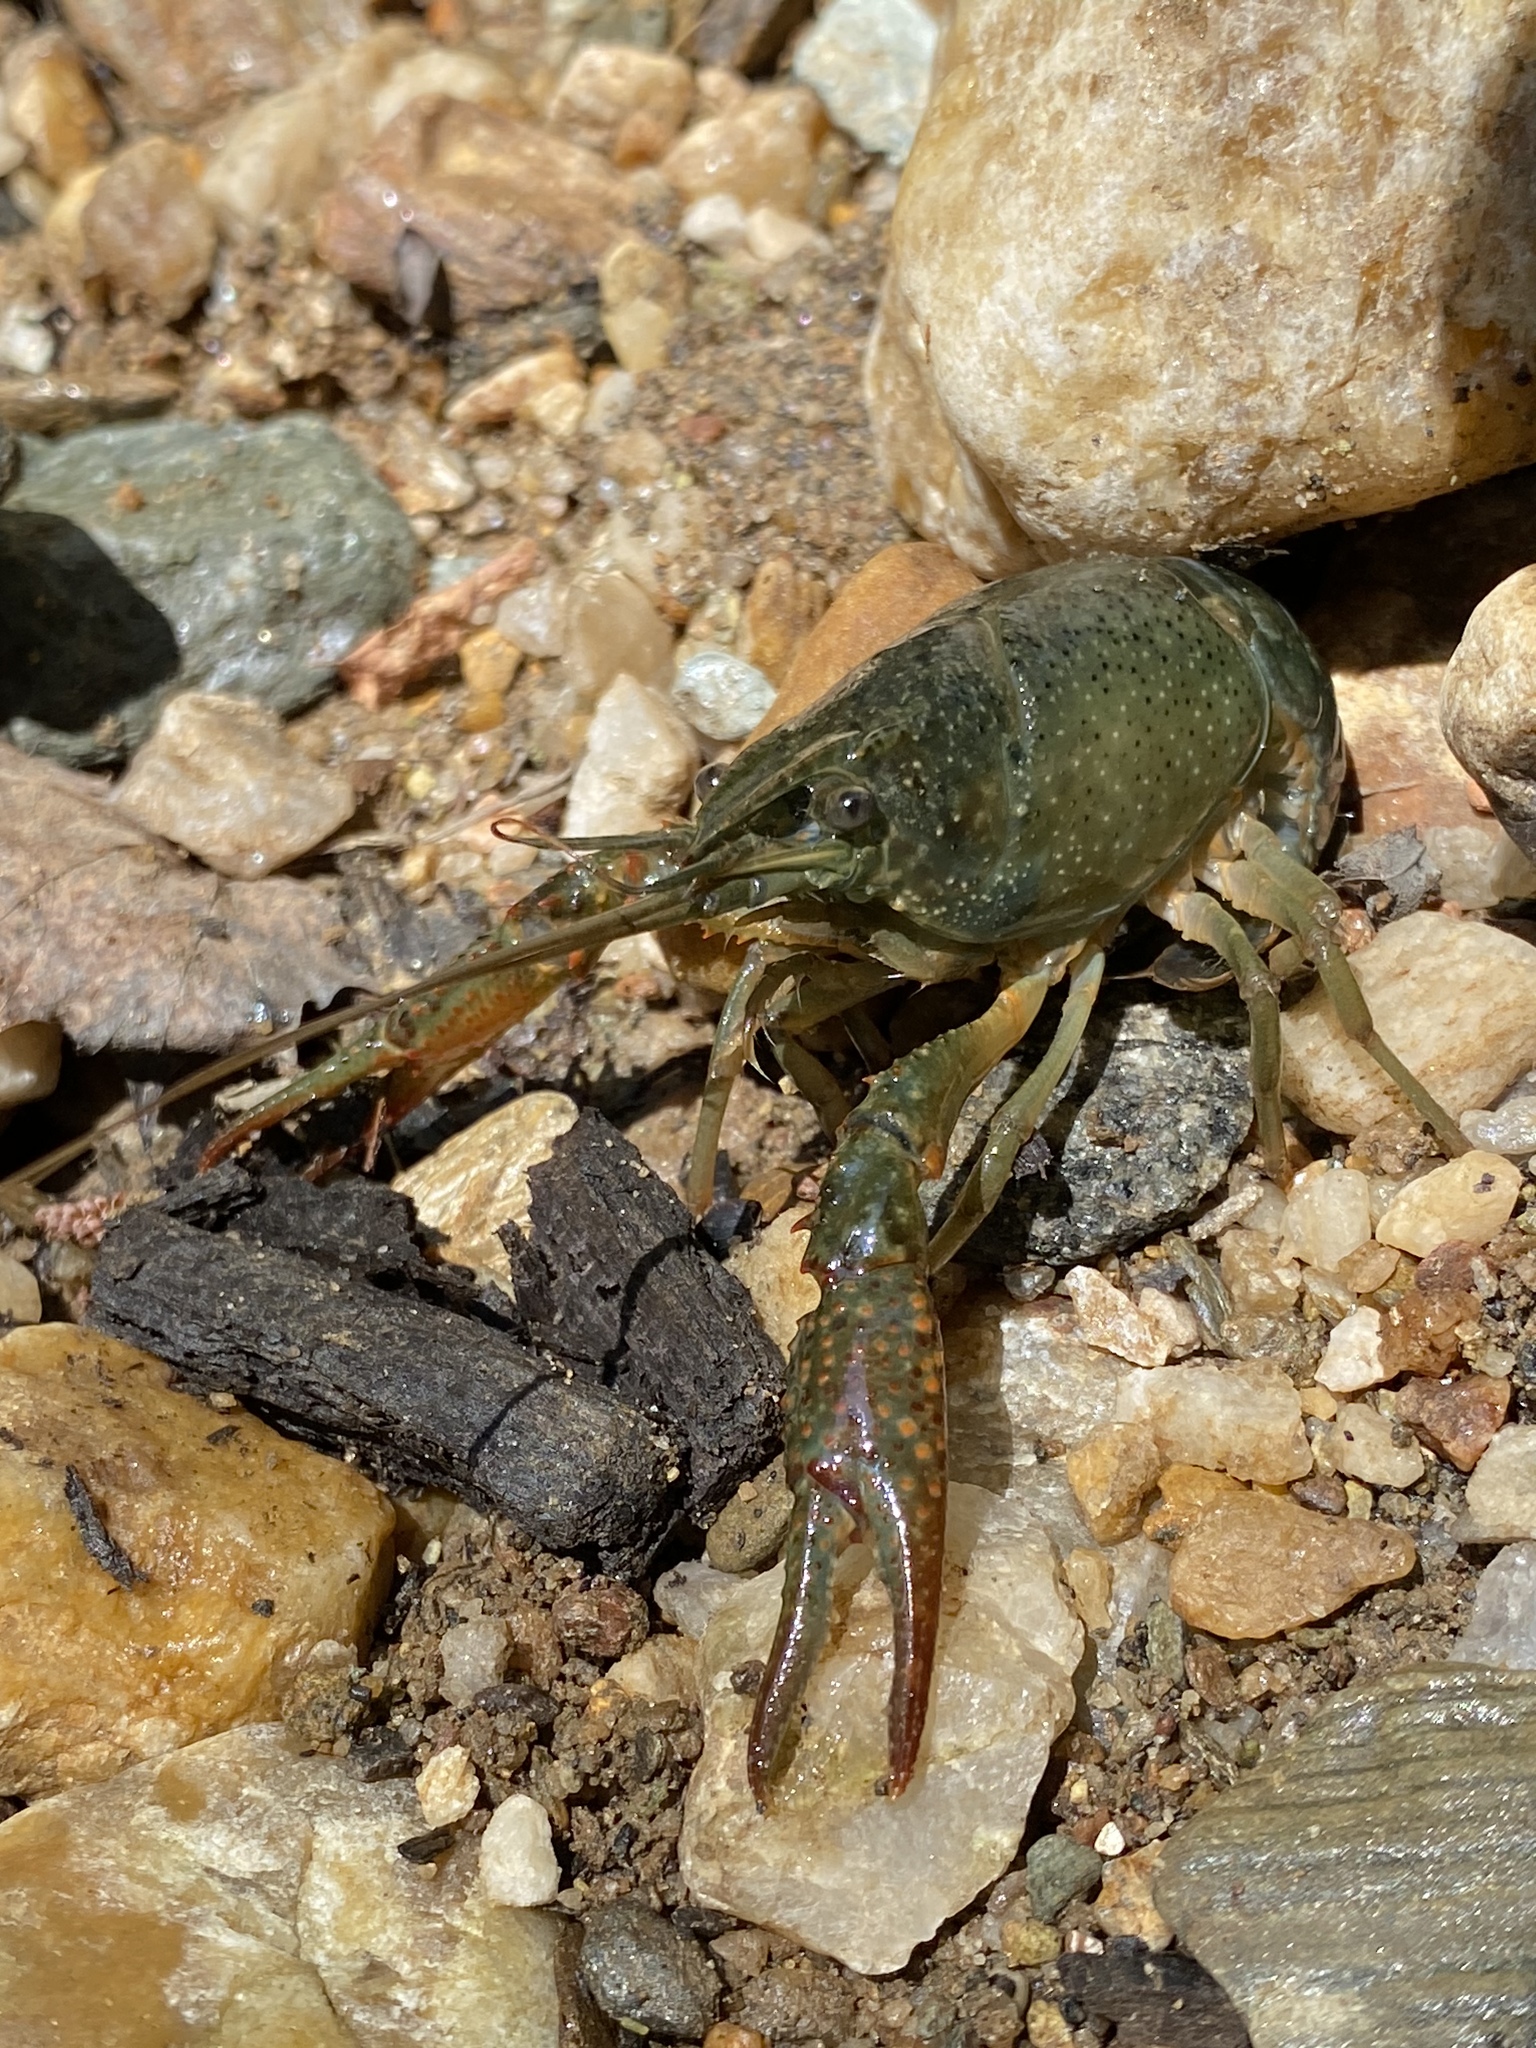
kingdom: Animalia
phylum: Arthropoda
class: Malacostraca
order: Decapoda
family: Cambaridae
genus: Procambarus
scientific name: Procambarus clarkii
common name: Red swamp crayfish
